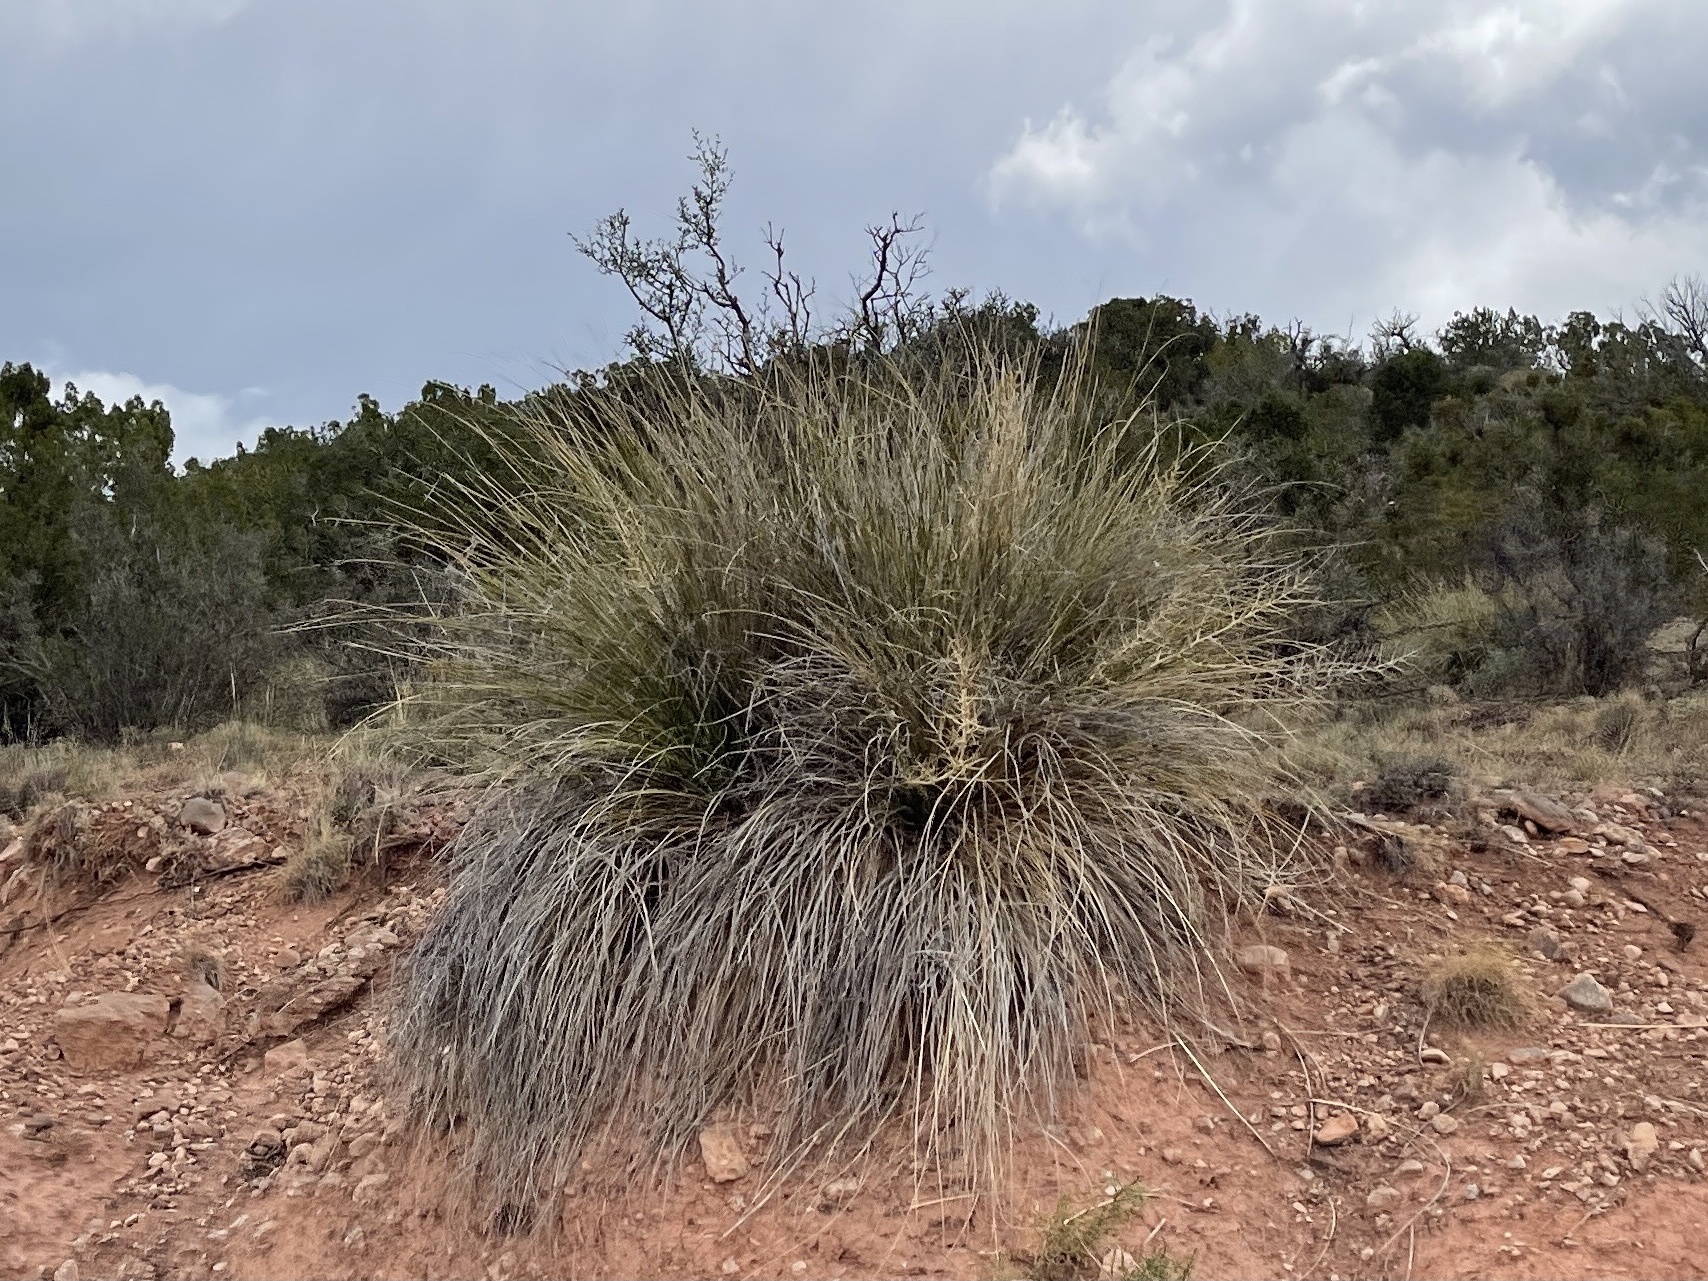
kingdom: Plantae
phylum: Tracheophyta
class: Liliopsida
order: Asparagales
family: Asparagaceae
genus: Nolina
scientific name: Nolina texana
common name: Texas sacahuiste
